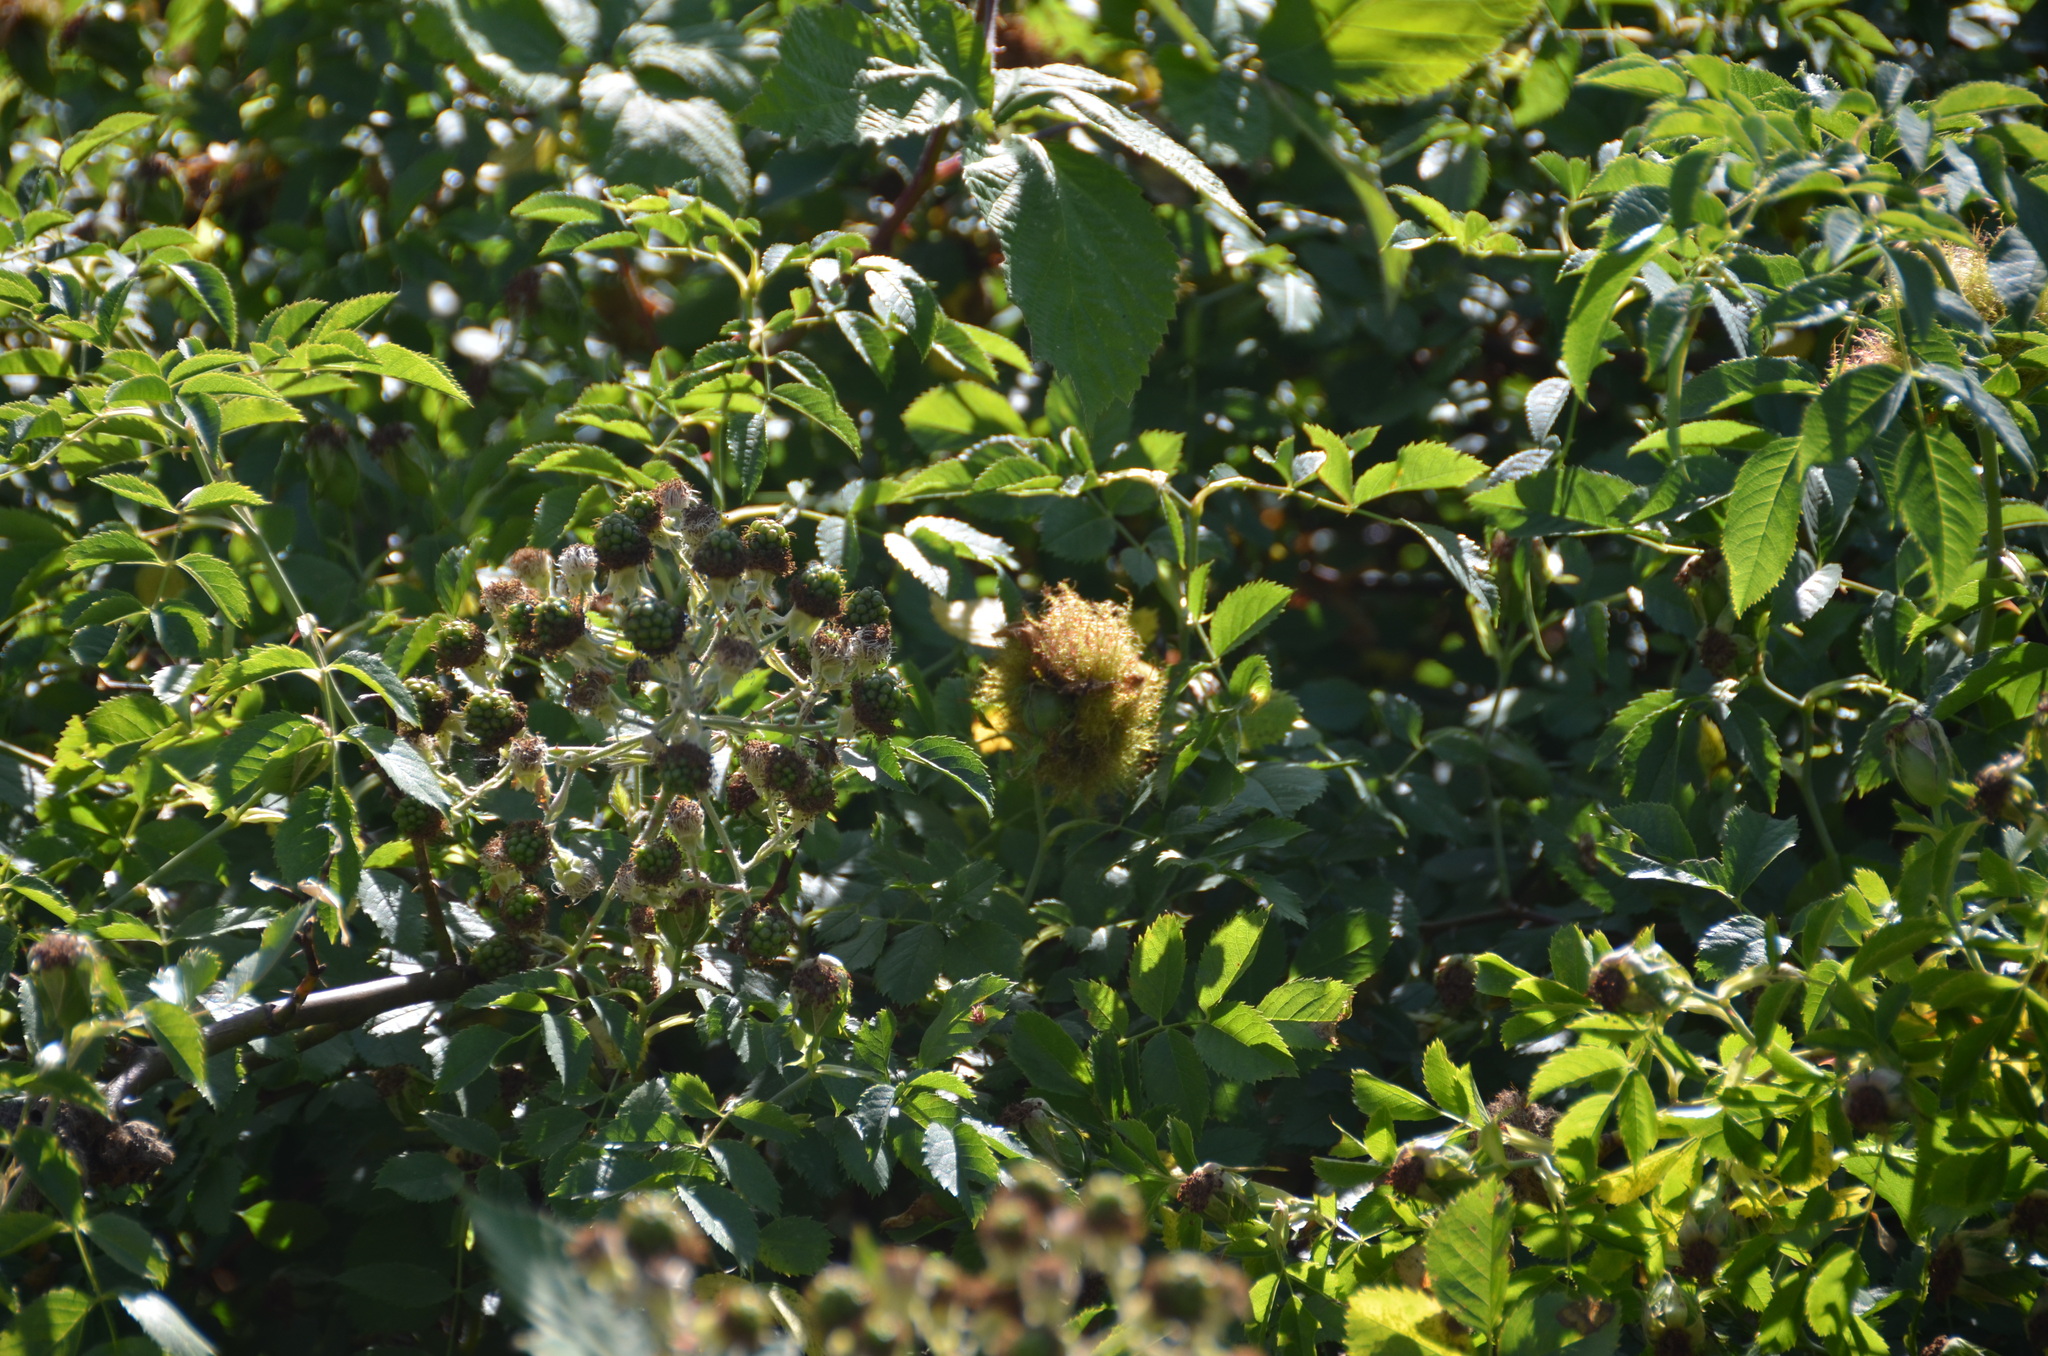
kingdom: Animalia
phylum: Arthropoda
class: Insecta
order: Hymenoptera
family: Cynipidae
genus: Diplolepis
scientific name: Diplolepis rosae
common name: Bedeguar gall
